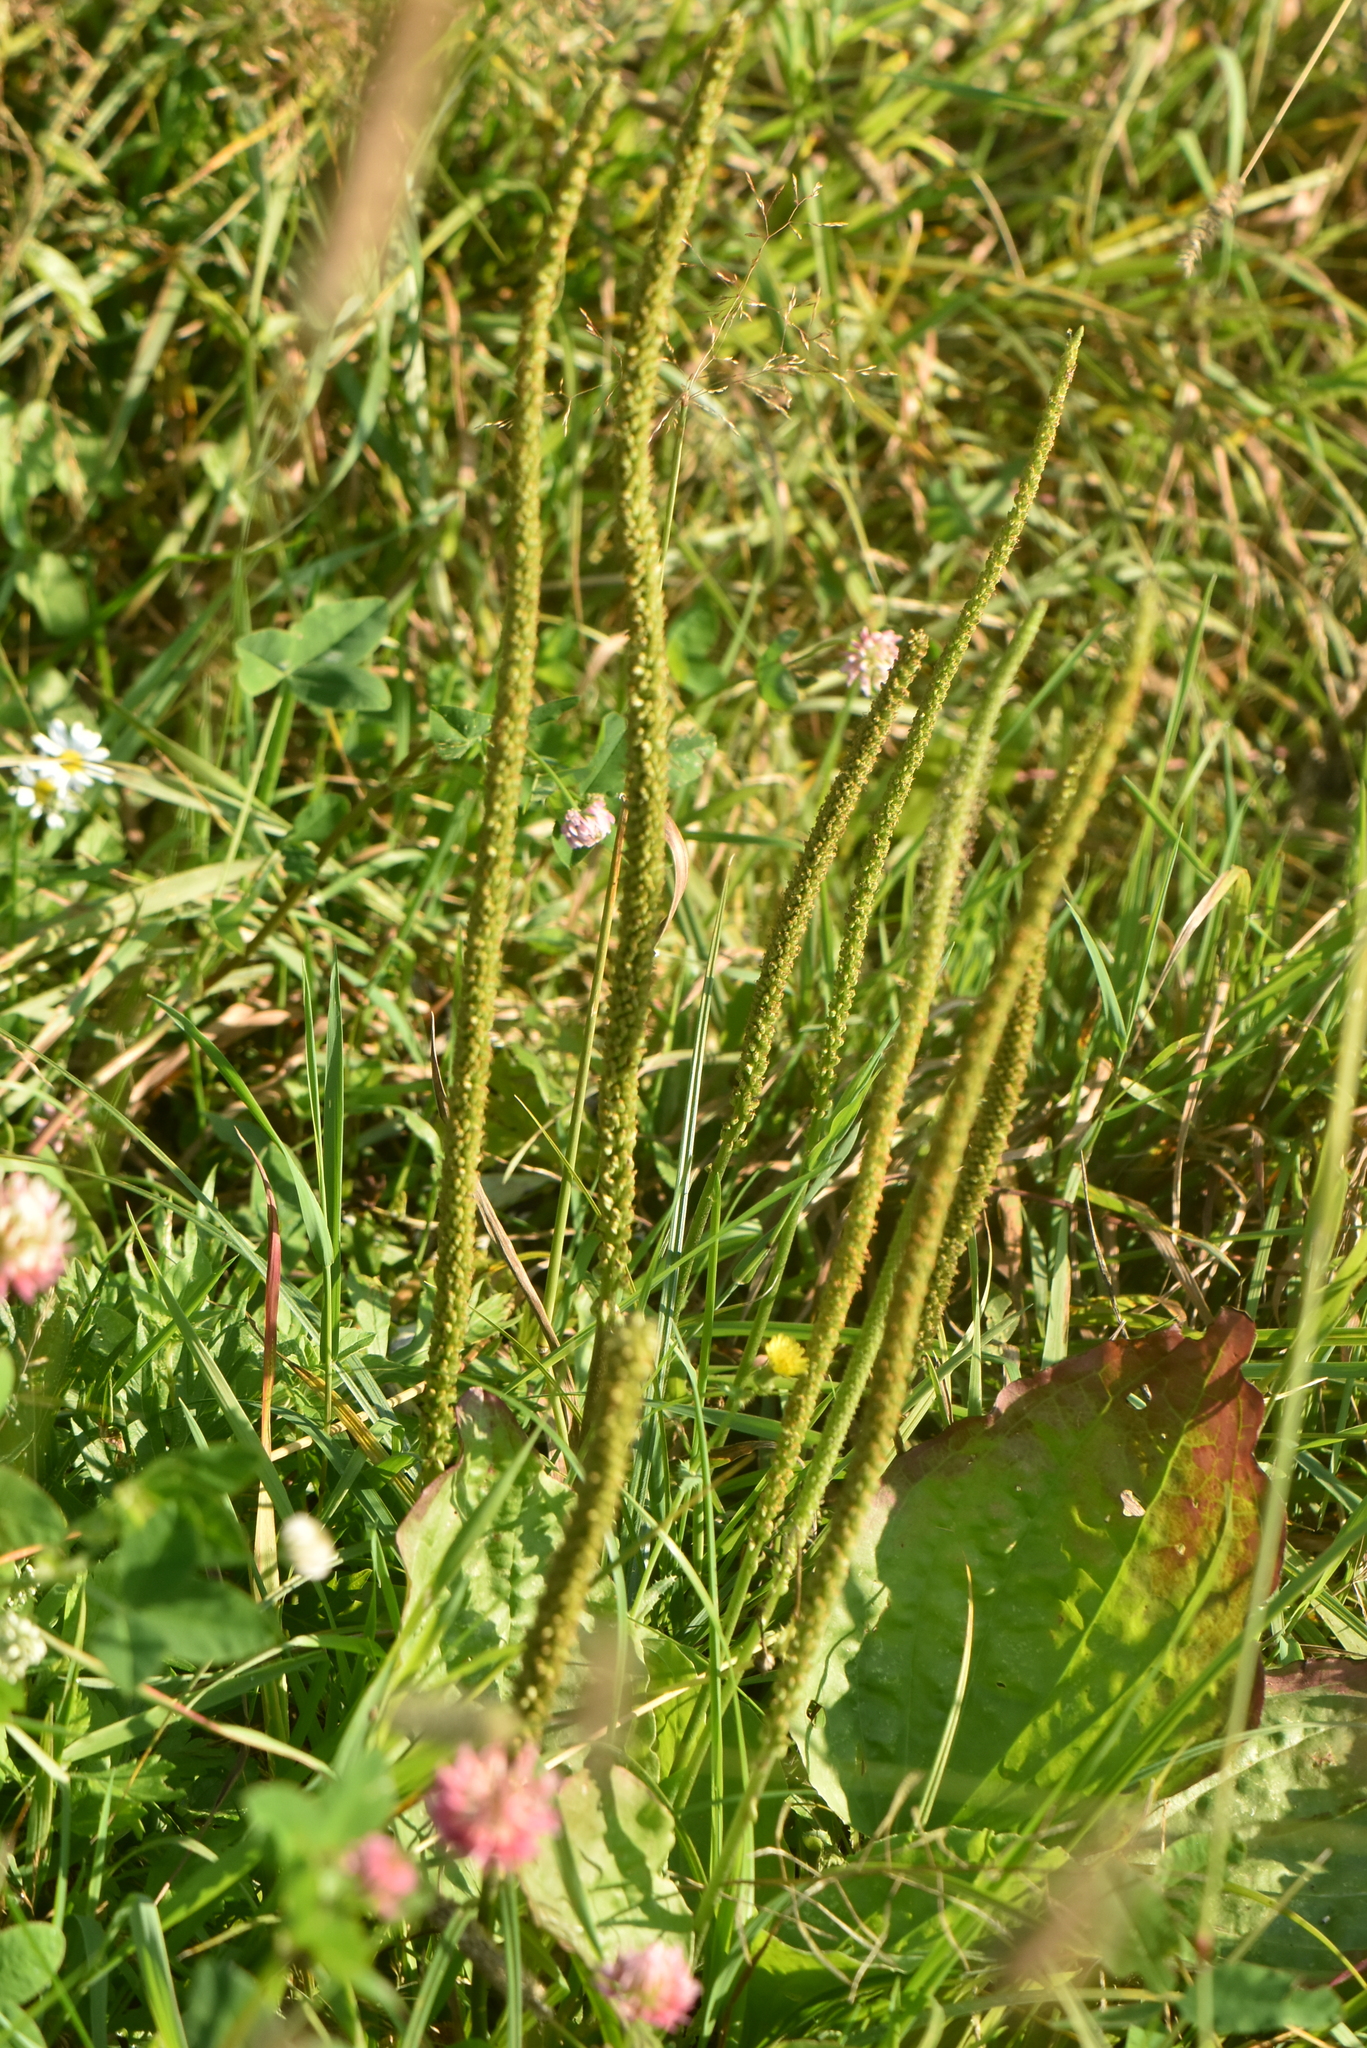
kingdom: Plantae
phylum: Tracheophyta
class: Magnoliopsida
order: Lamiales
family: Plantaginaceae
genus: Plantago
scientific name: Plantago major
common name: Common plantain
